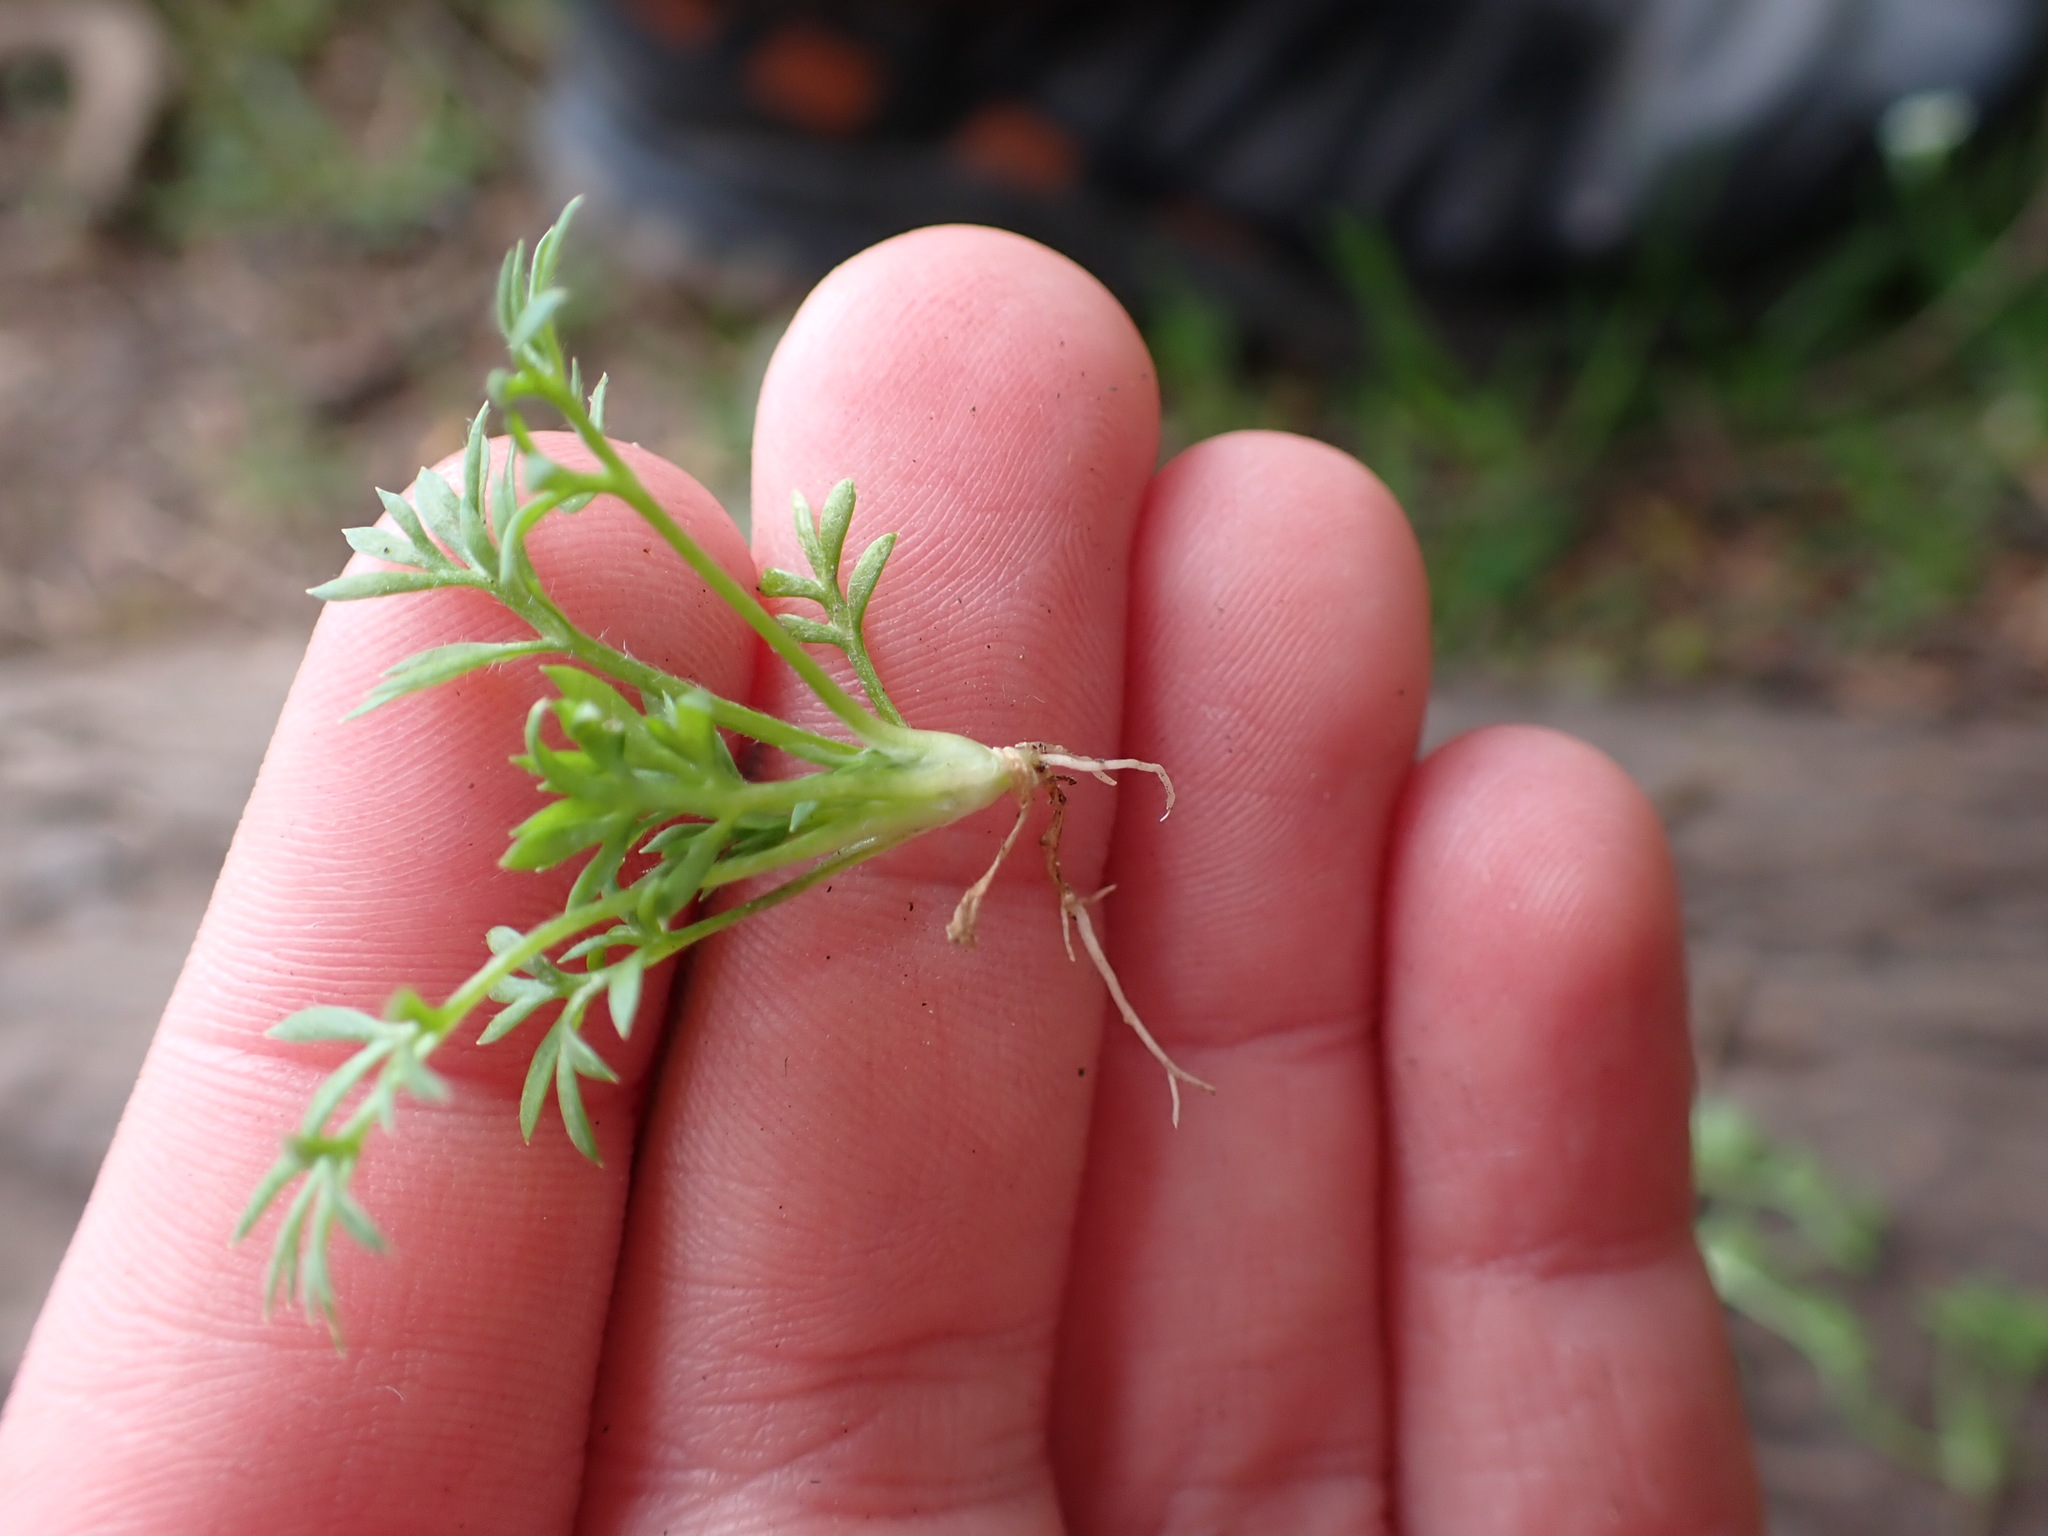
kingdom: Plantae
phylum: Tracheophyta
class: Magnoliopsida
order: Asterales
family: Asteraceae
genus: Soliva
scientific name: Soliva sessilis
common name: Field burrweed
